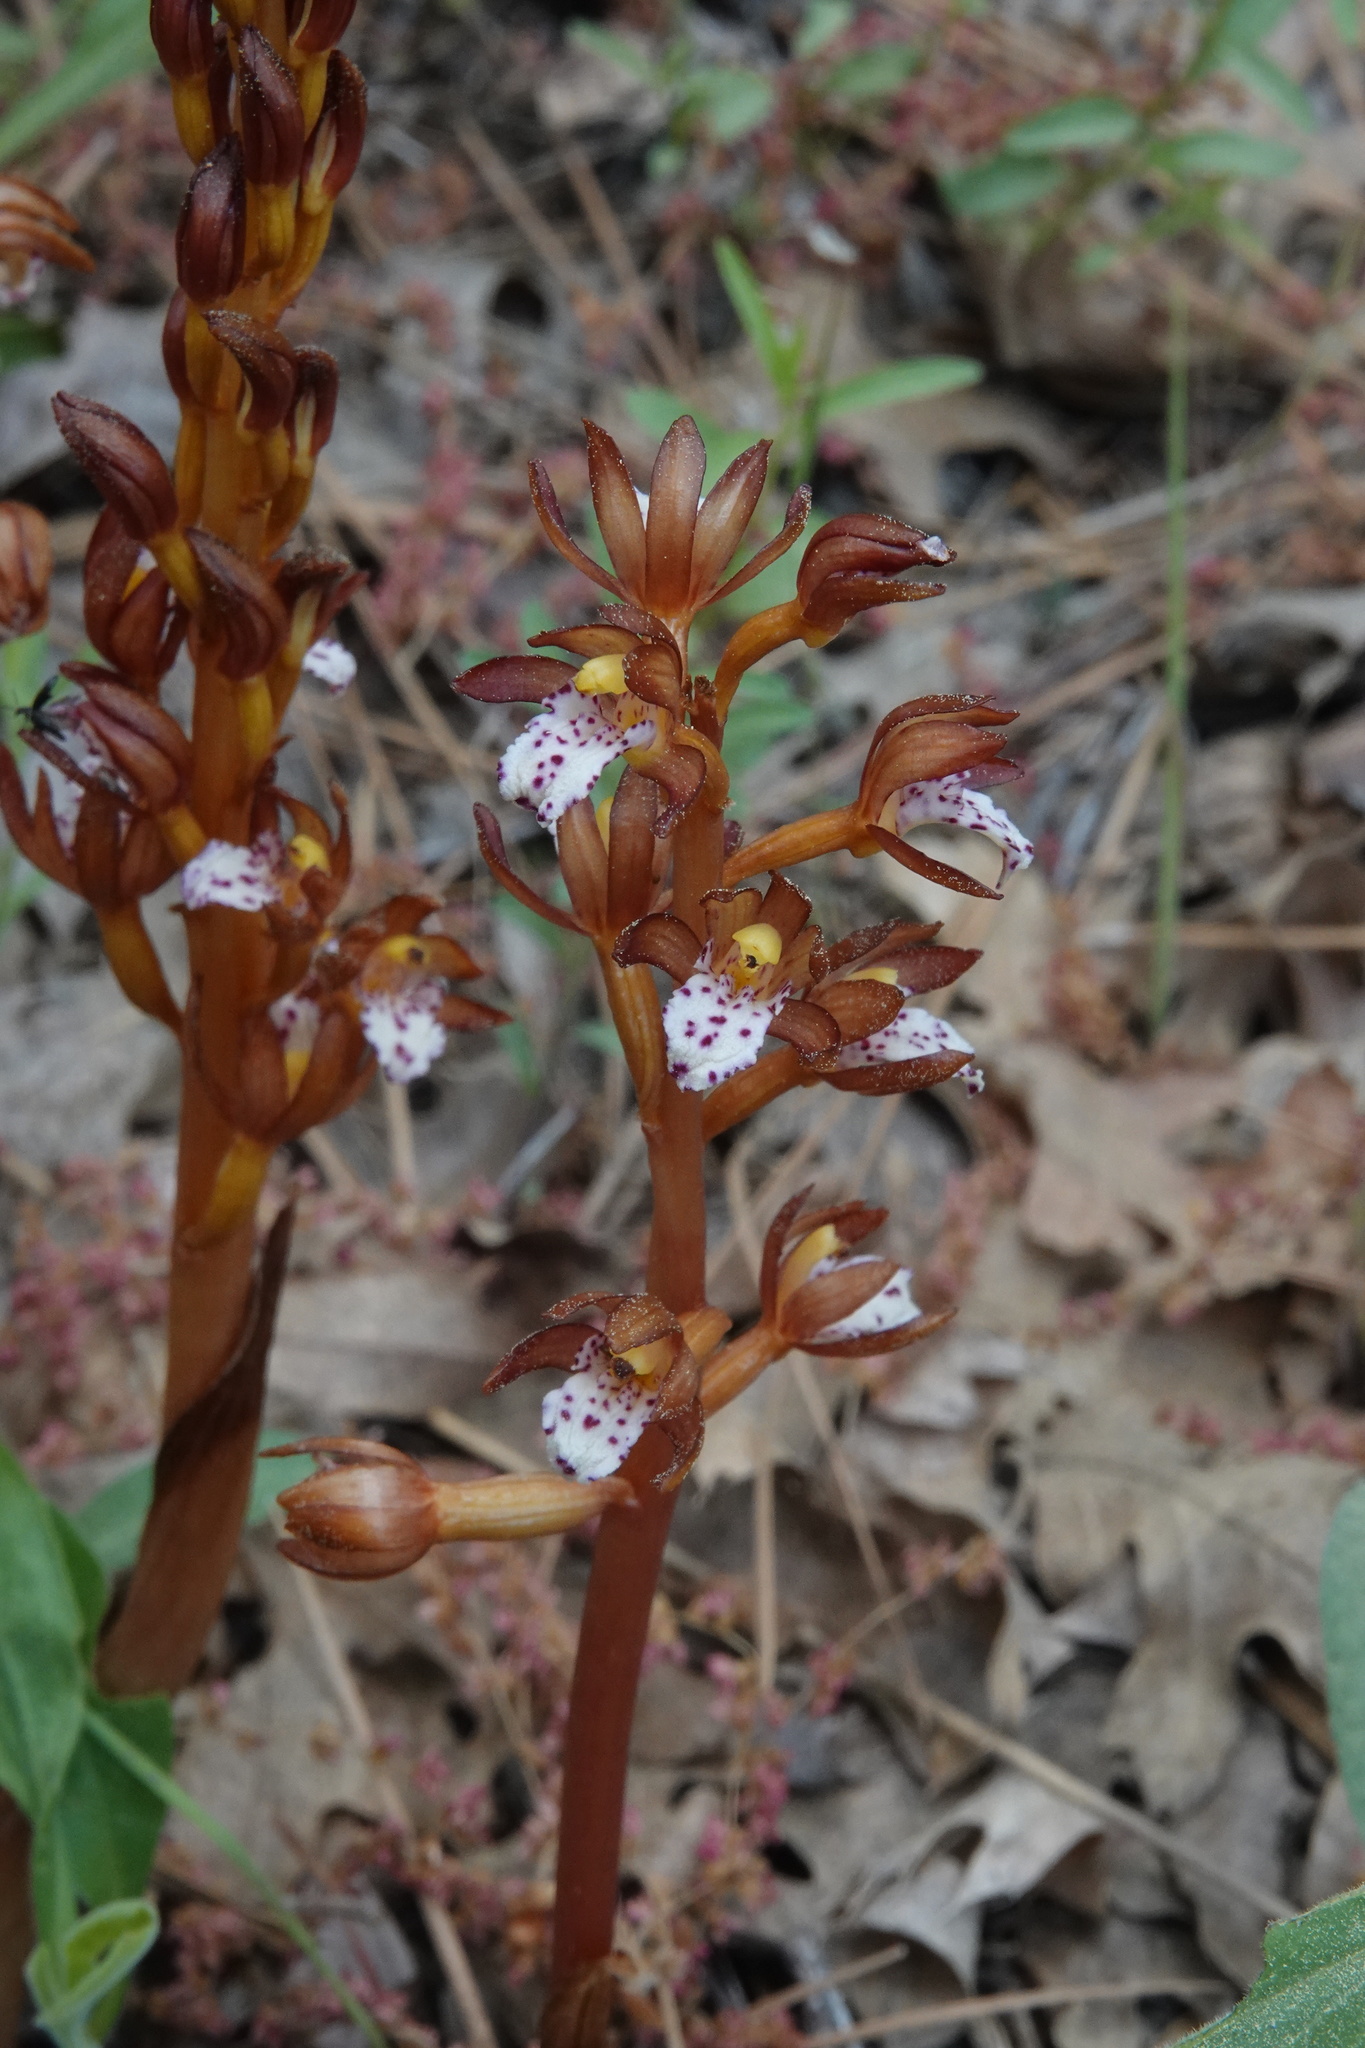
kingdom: Plantae
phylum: Tracheophyta
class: Liliopsida
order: Asparagales
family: Orchidaceae
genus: Corallorhiza
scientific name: Corallorhiza maculata
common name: Spotted coralroot
